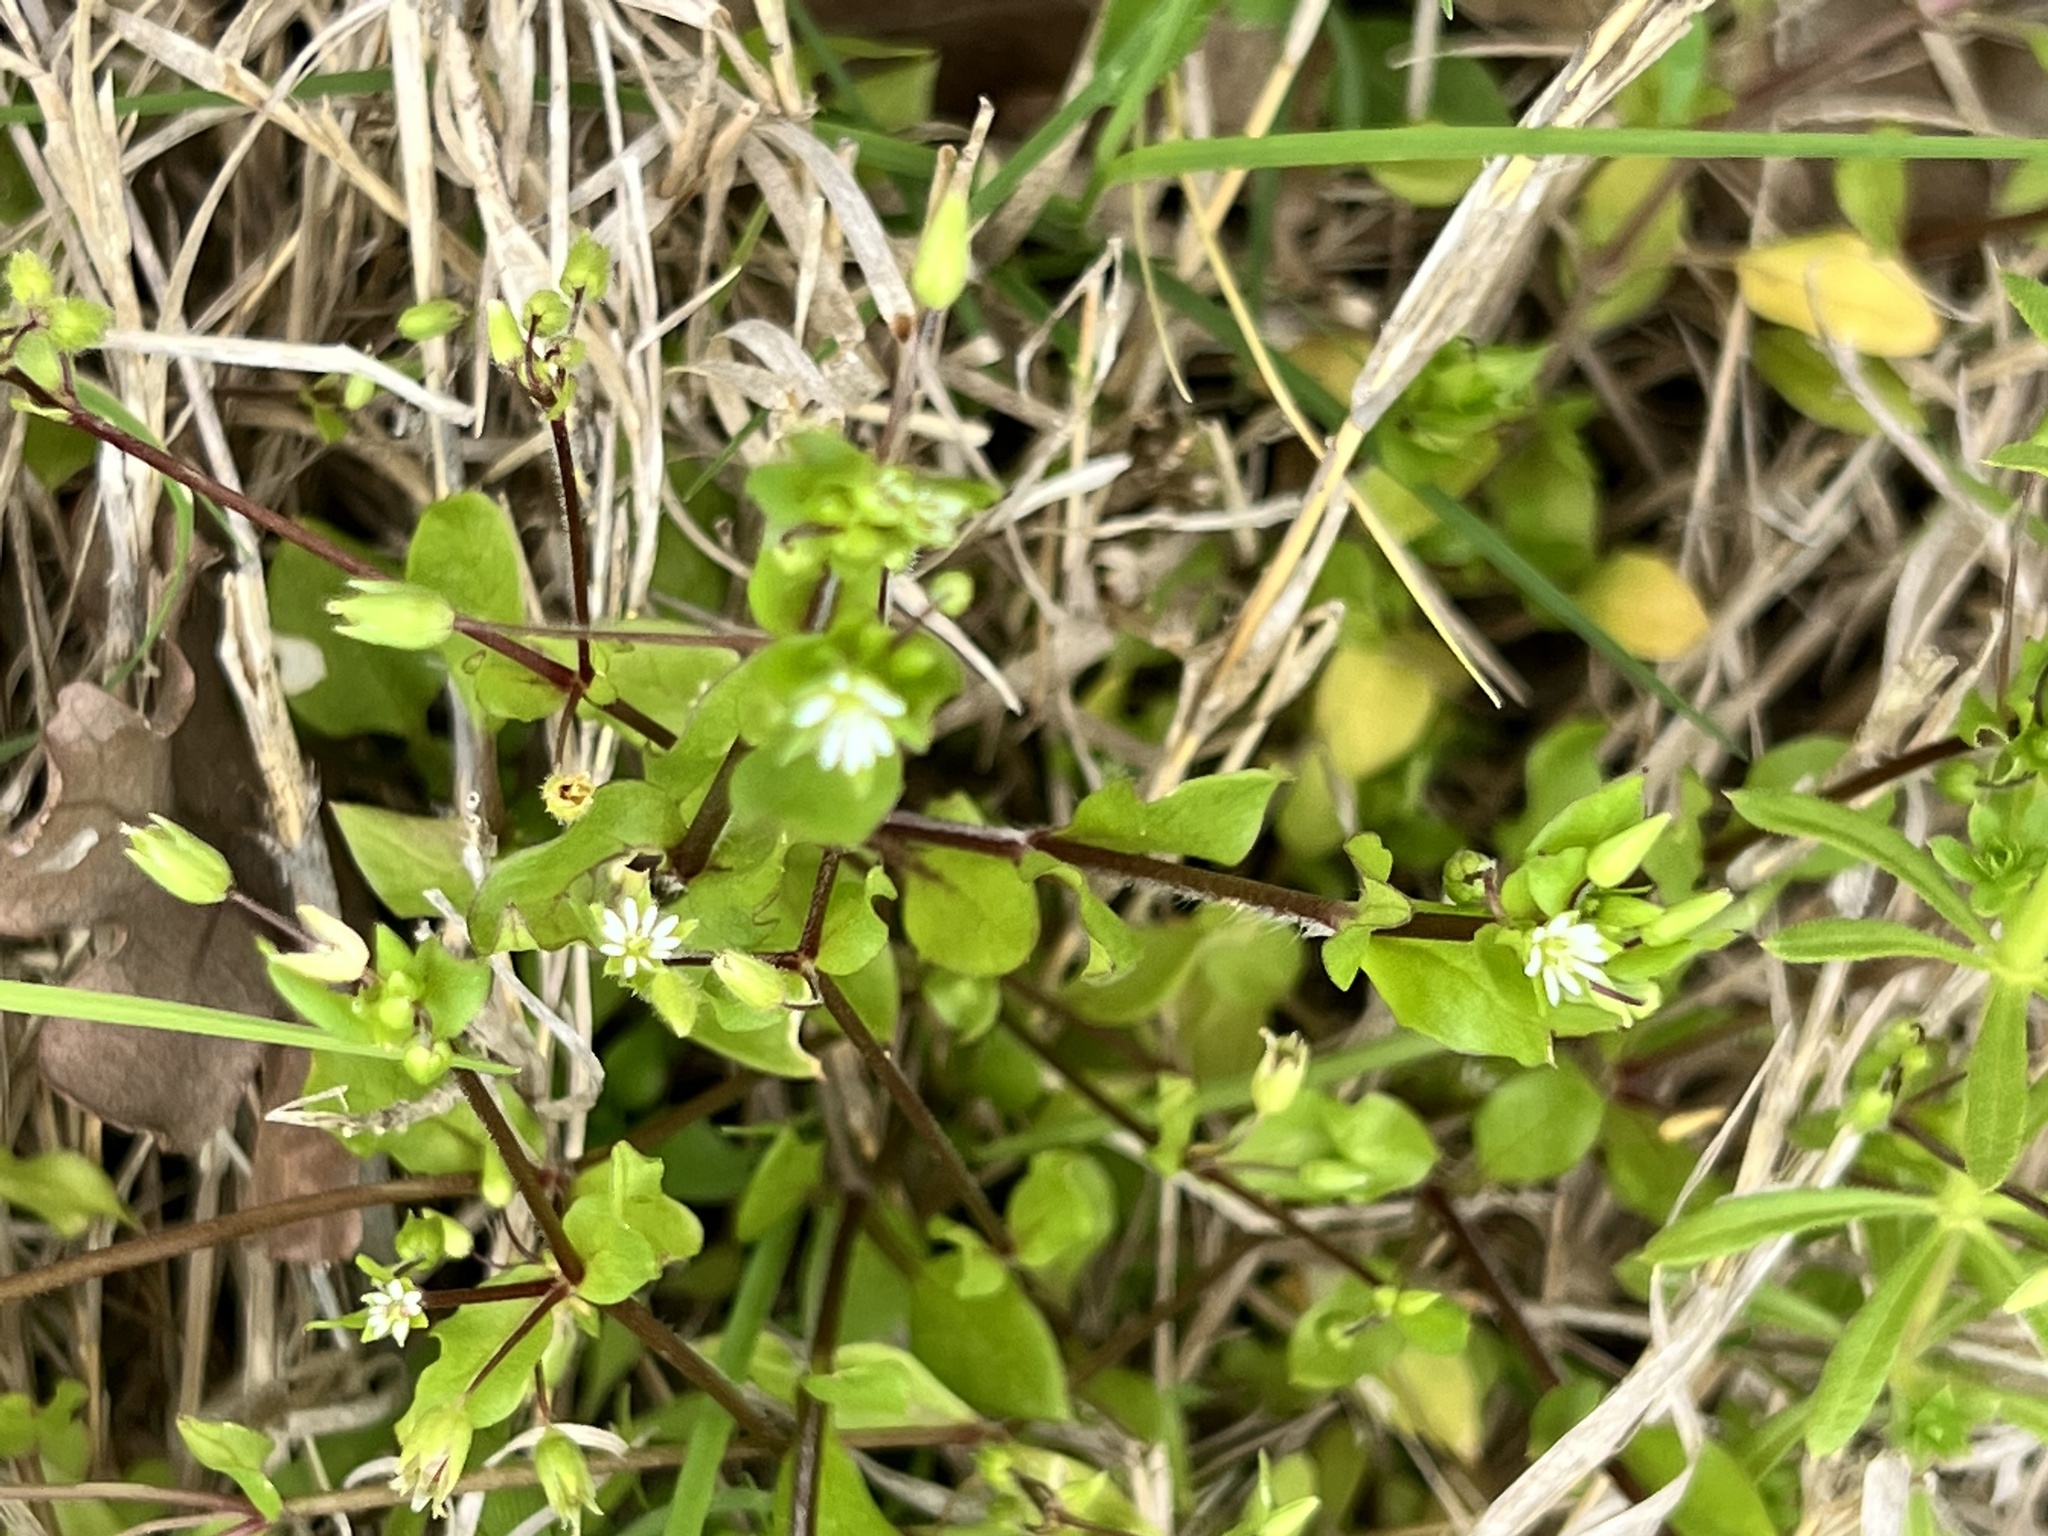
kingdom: Plantae
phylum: Tracheophyta
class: Magnoliopsida
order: Caryophyllales
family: Caryophyllaceae
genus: Stellaria
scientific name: Stellaria media
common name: Common chickweed
